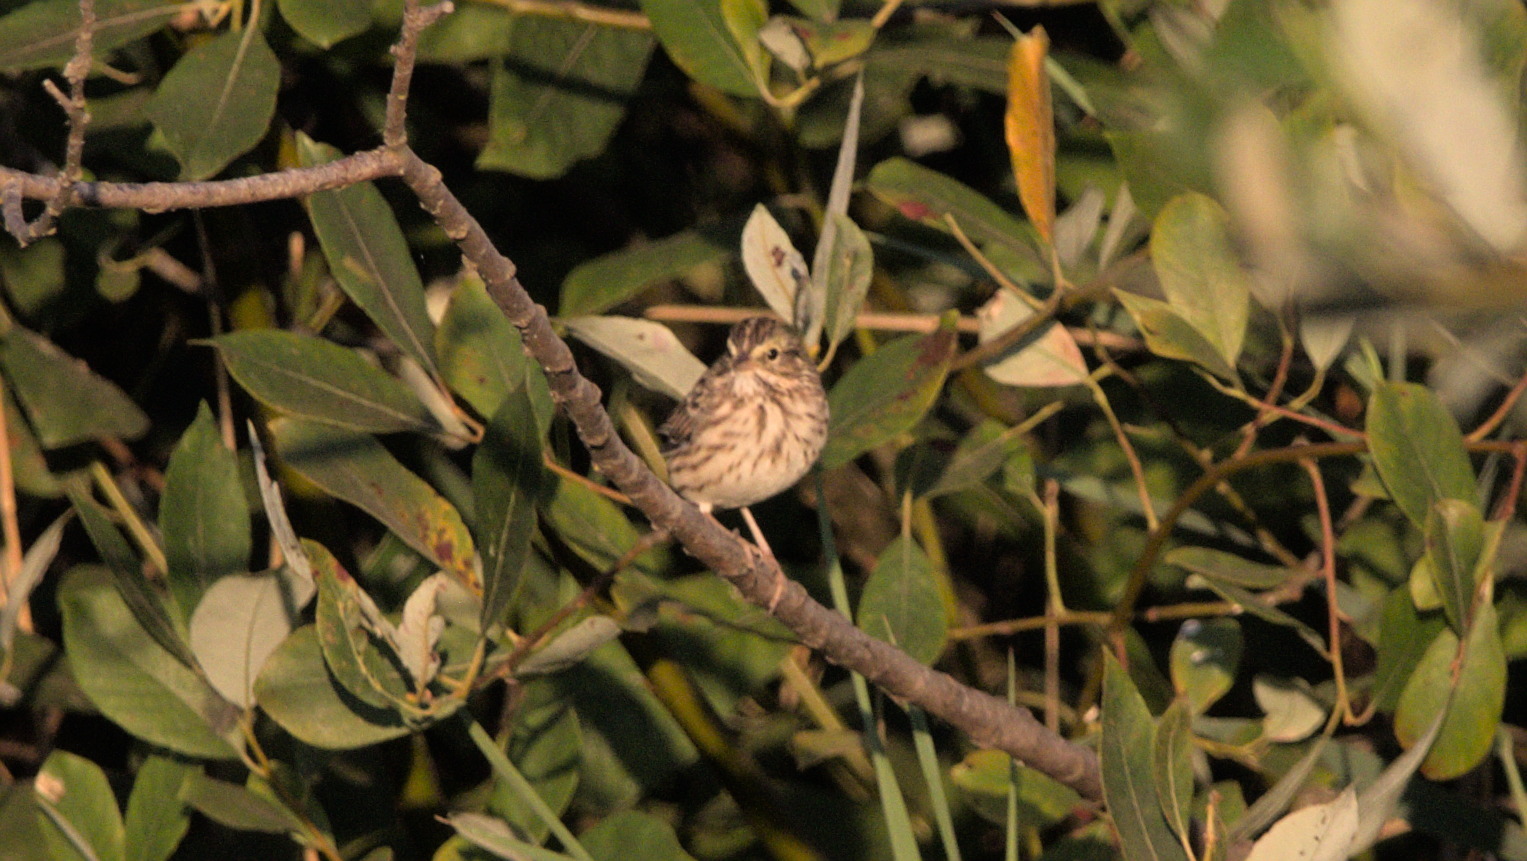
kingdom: Animalia
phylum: Chordata
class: Aves
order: Passeriformes
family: Passerellidae
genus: Passerculus
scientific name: Passerculus sandwichensis
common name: Savannah sparrow
